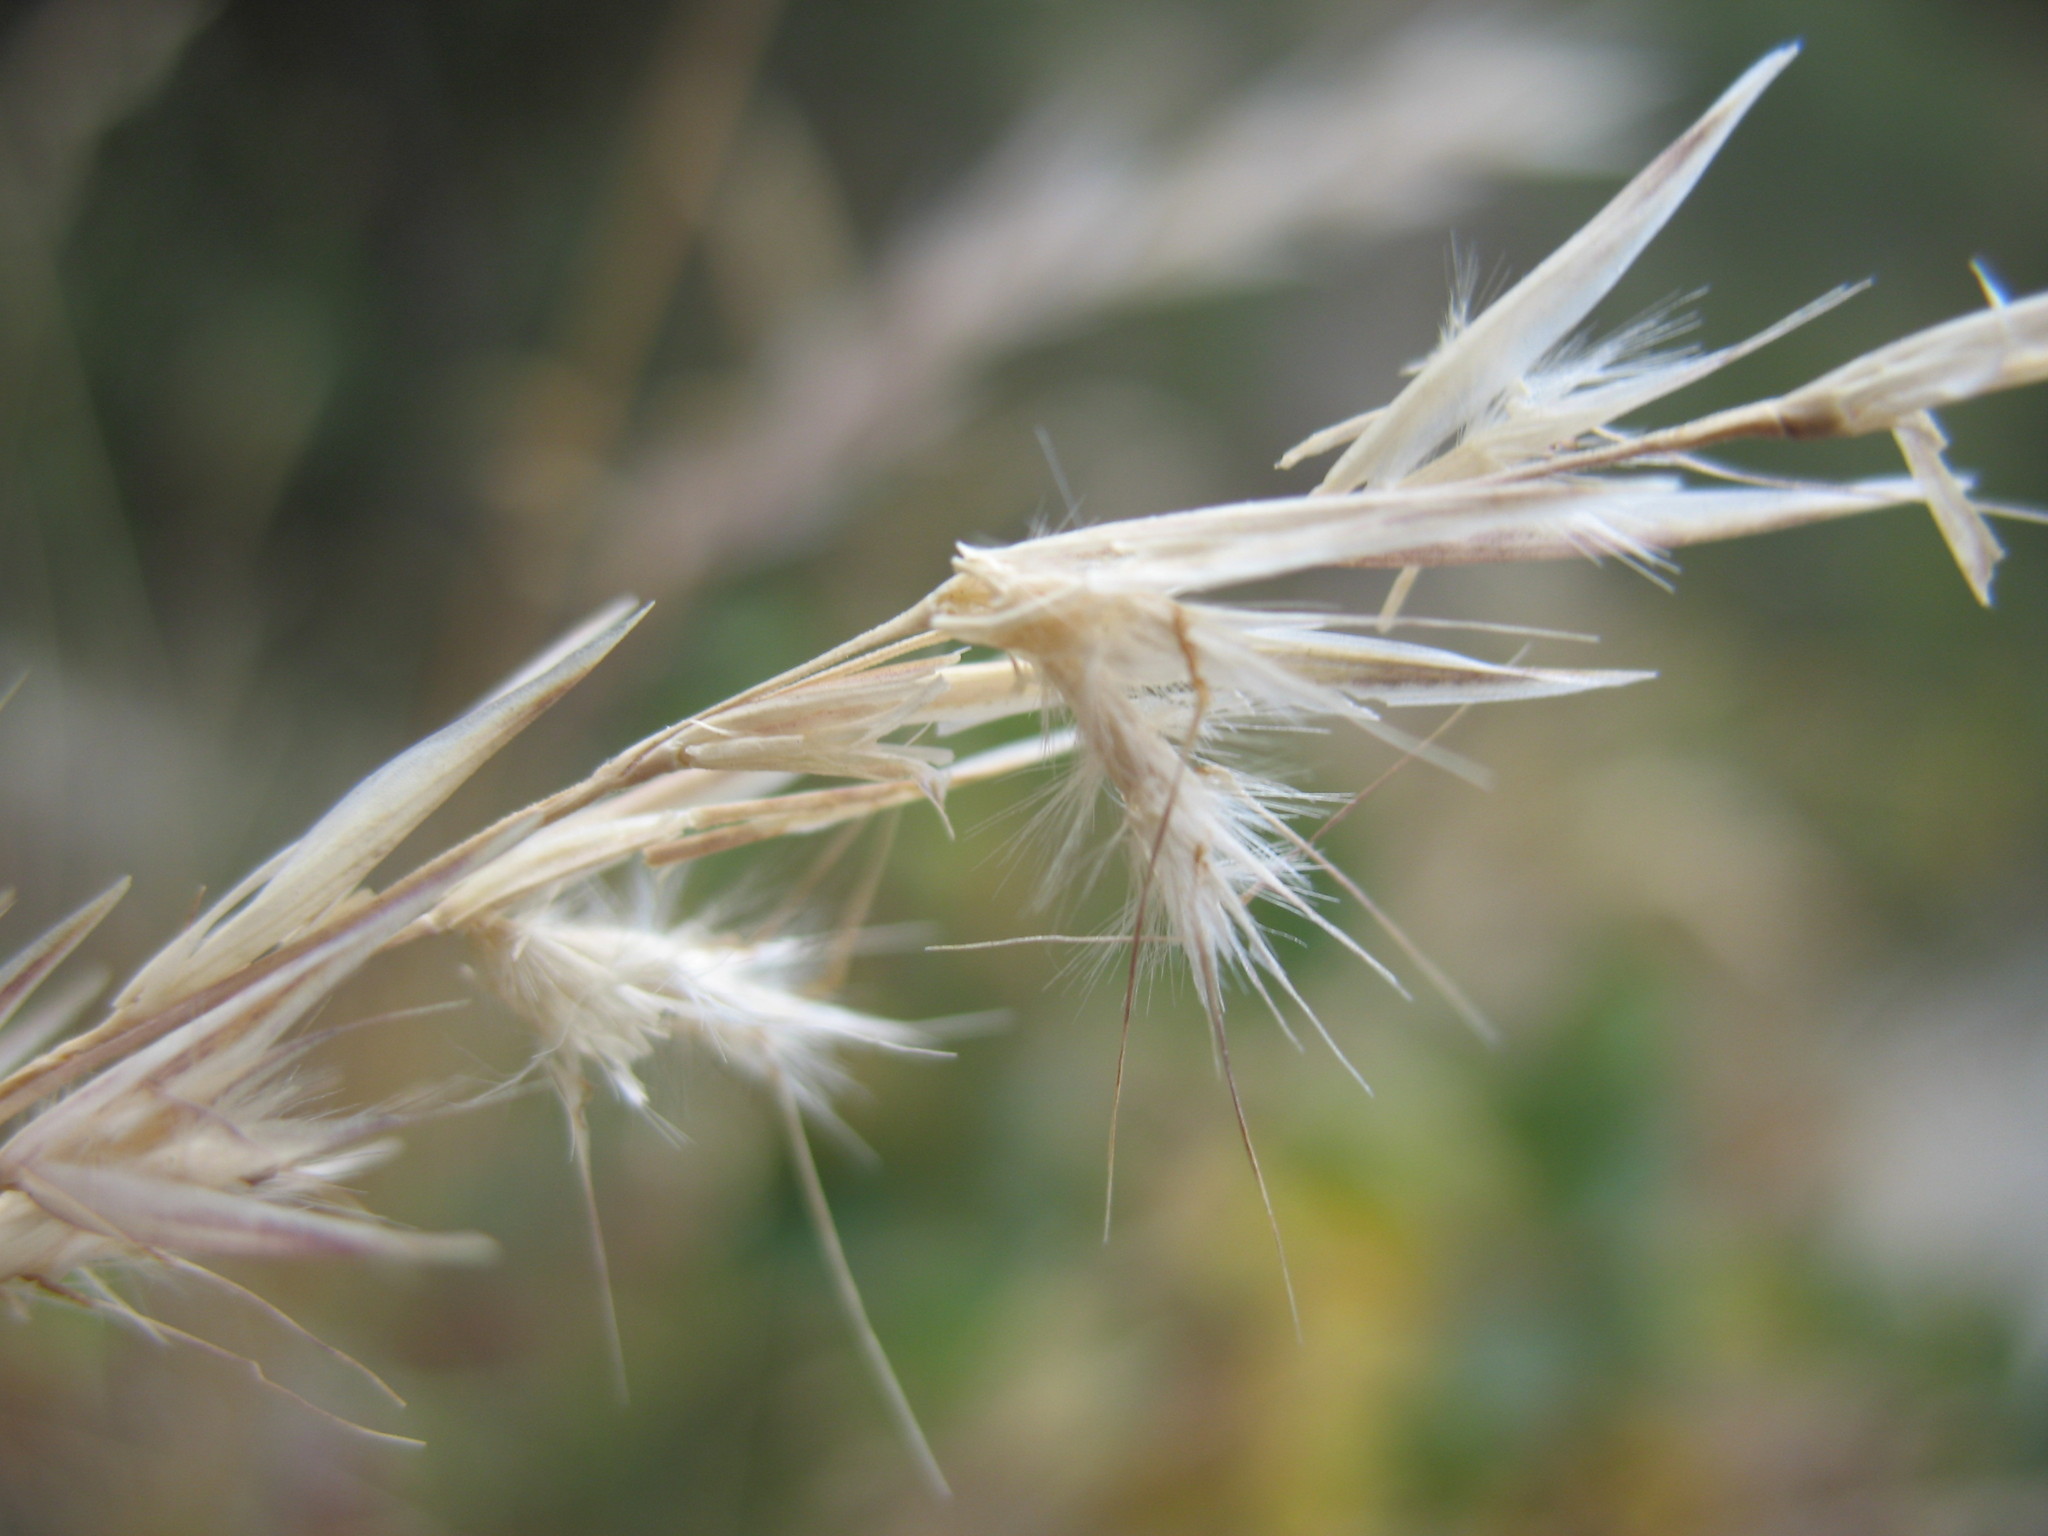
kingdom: Plantae
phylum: Tracheophyta
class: Liliopsida
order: Poales
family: Poaceae
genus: Rytidosperma
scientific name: Rytidosperma unarede
